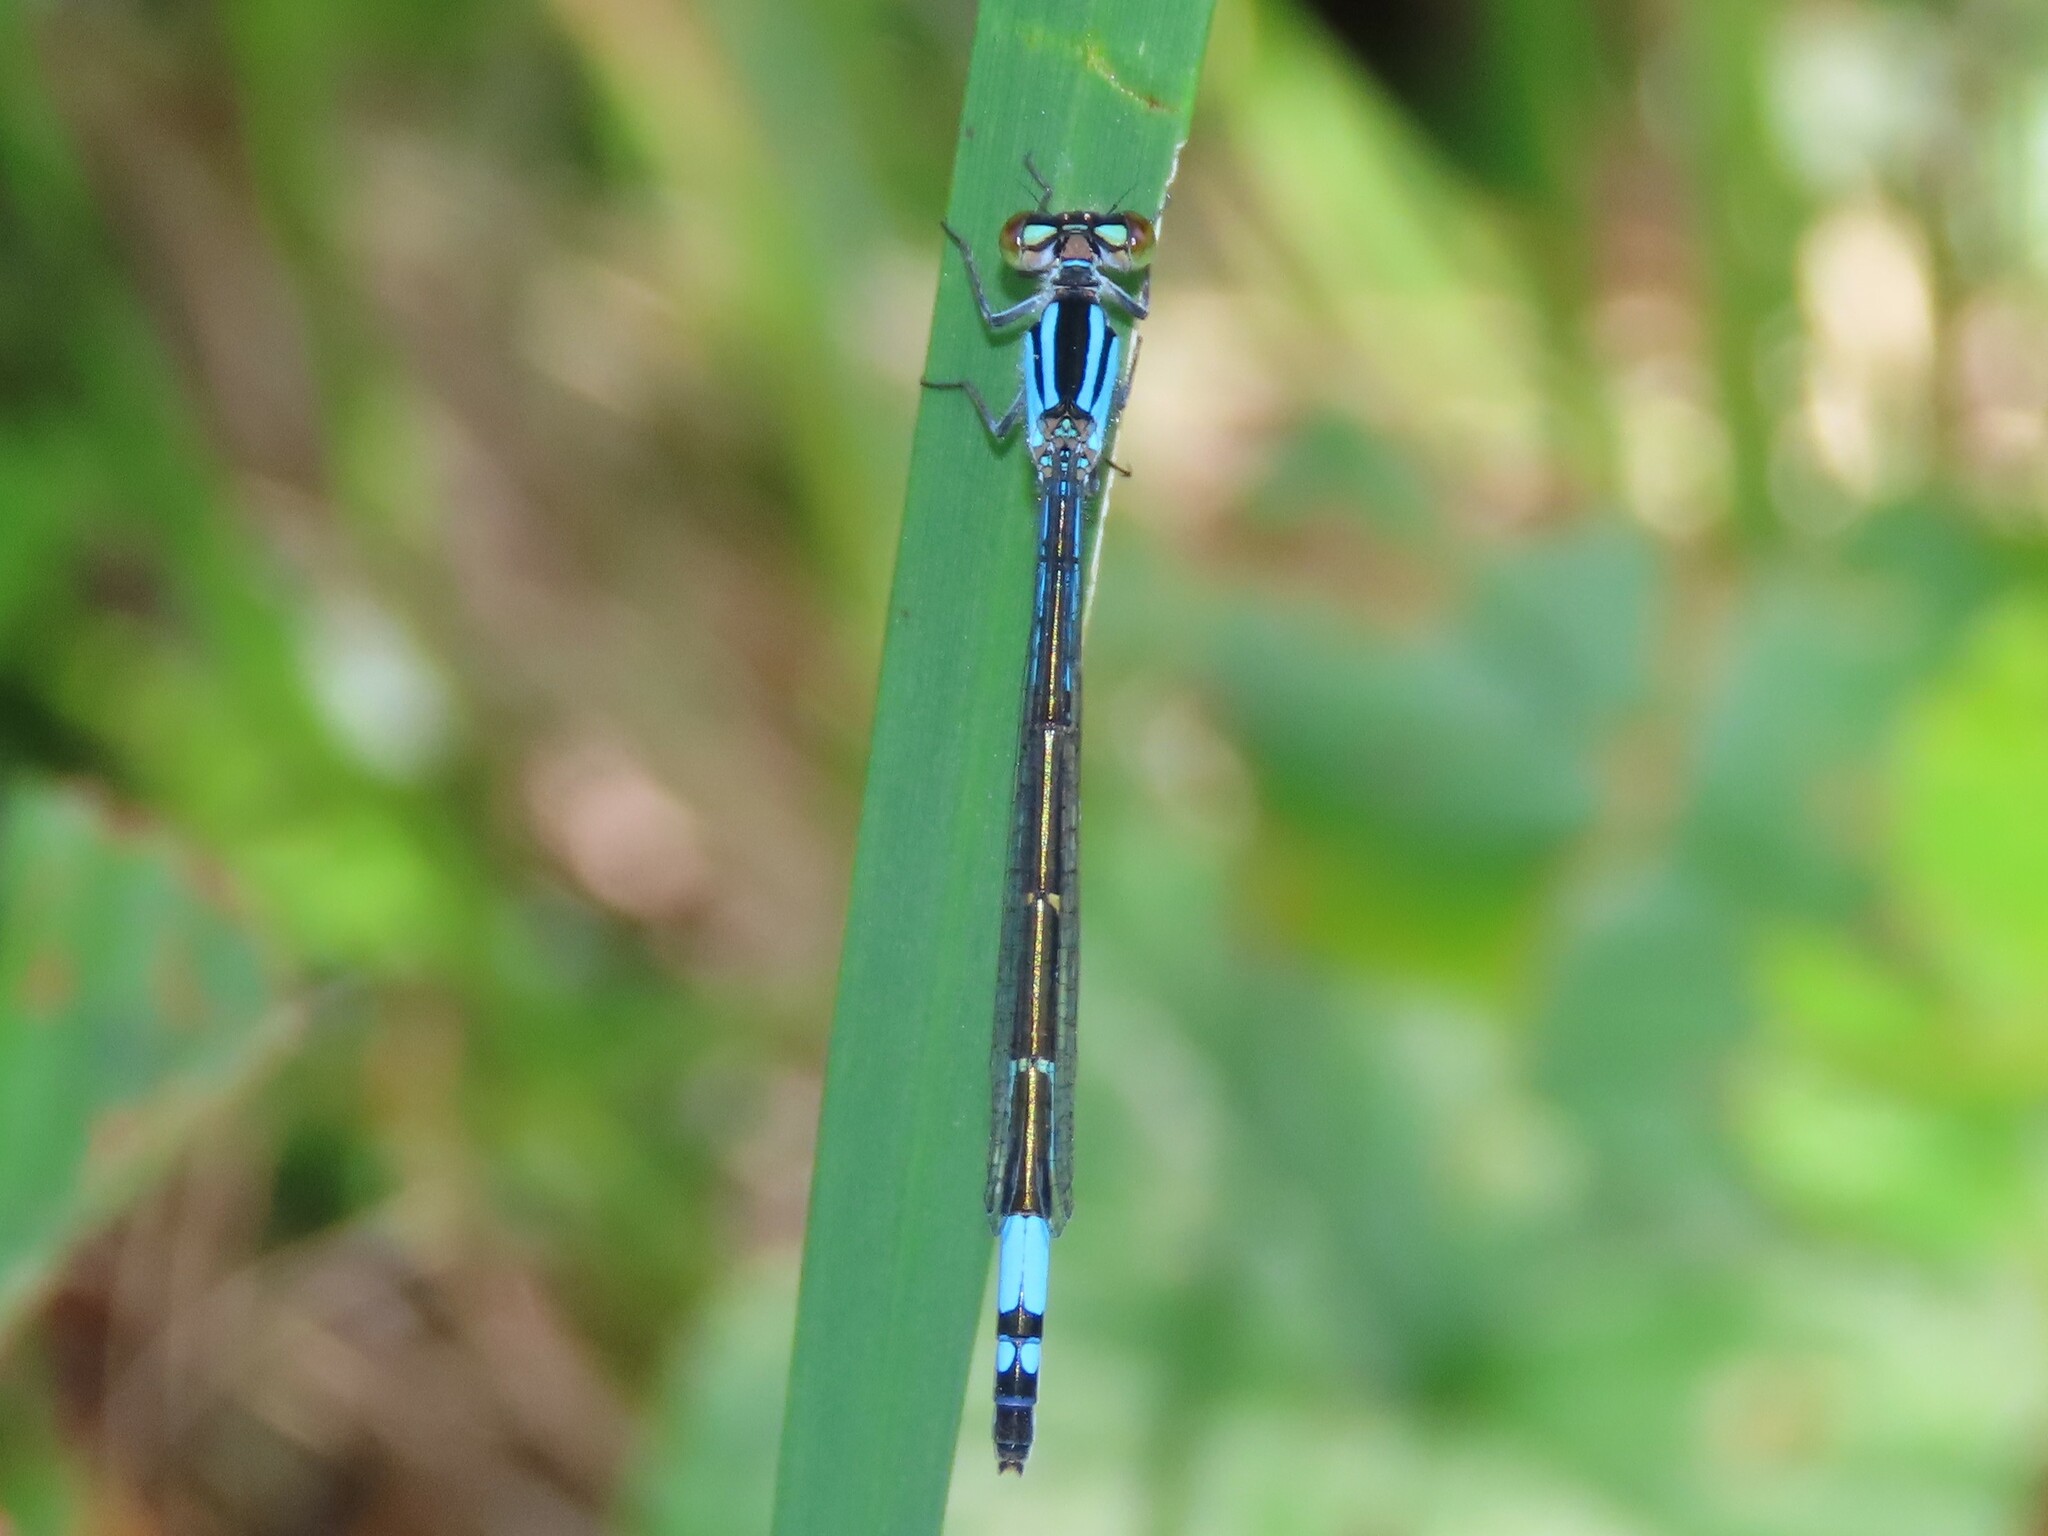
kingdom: Animalia
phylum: Arthropoda
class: Insecta
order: Odonata
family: Coenagrionidae
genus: Enallagma
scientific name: Enallagma aspersum
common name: Azure bluet
